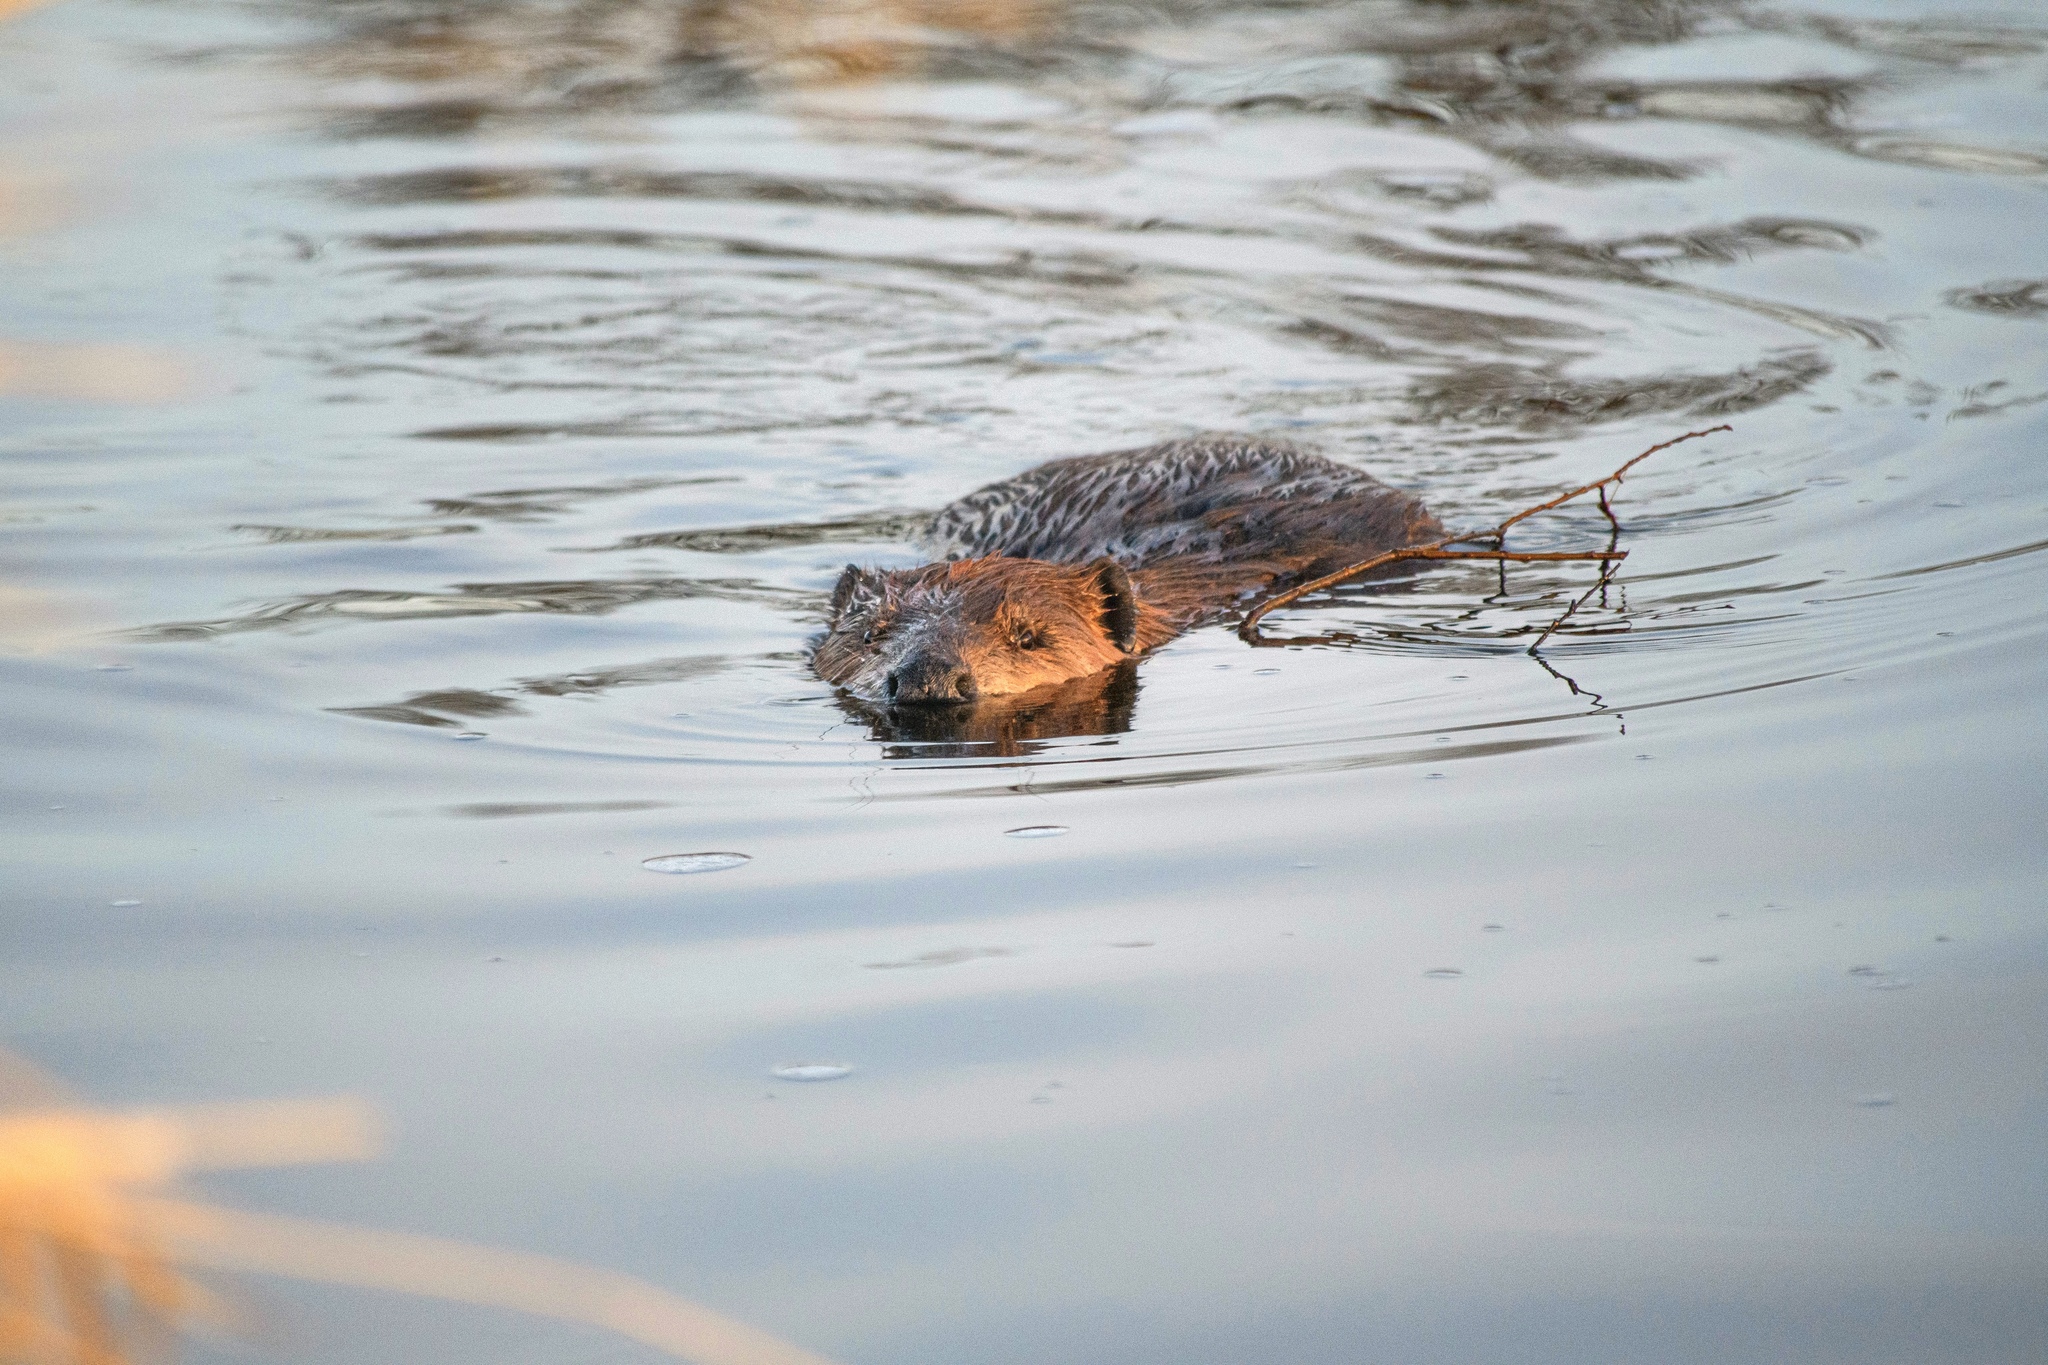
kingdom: Animalia
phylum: Chordata
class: Mammalia
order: Rodentia
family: Castoridae
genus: Castor
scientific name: Castor canadensis
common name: American beaver
